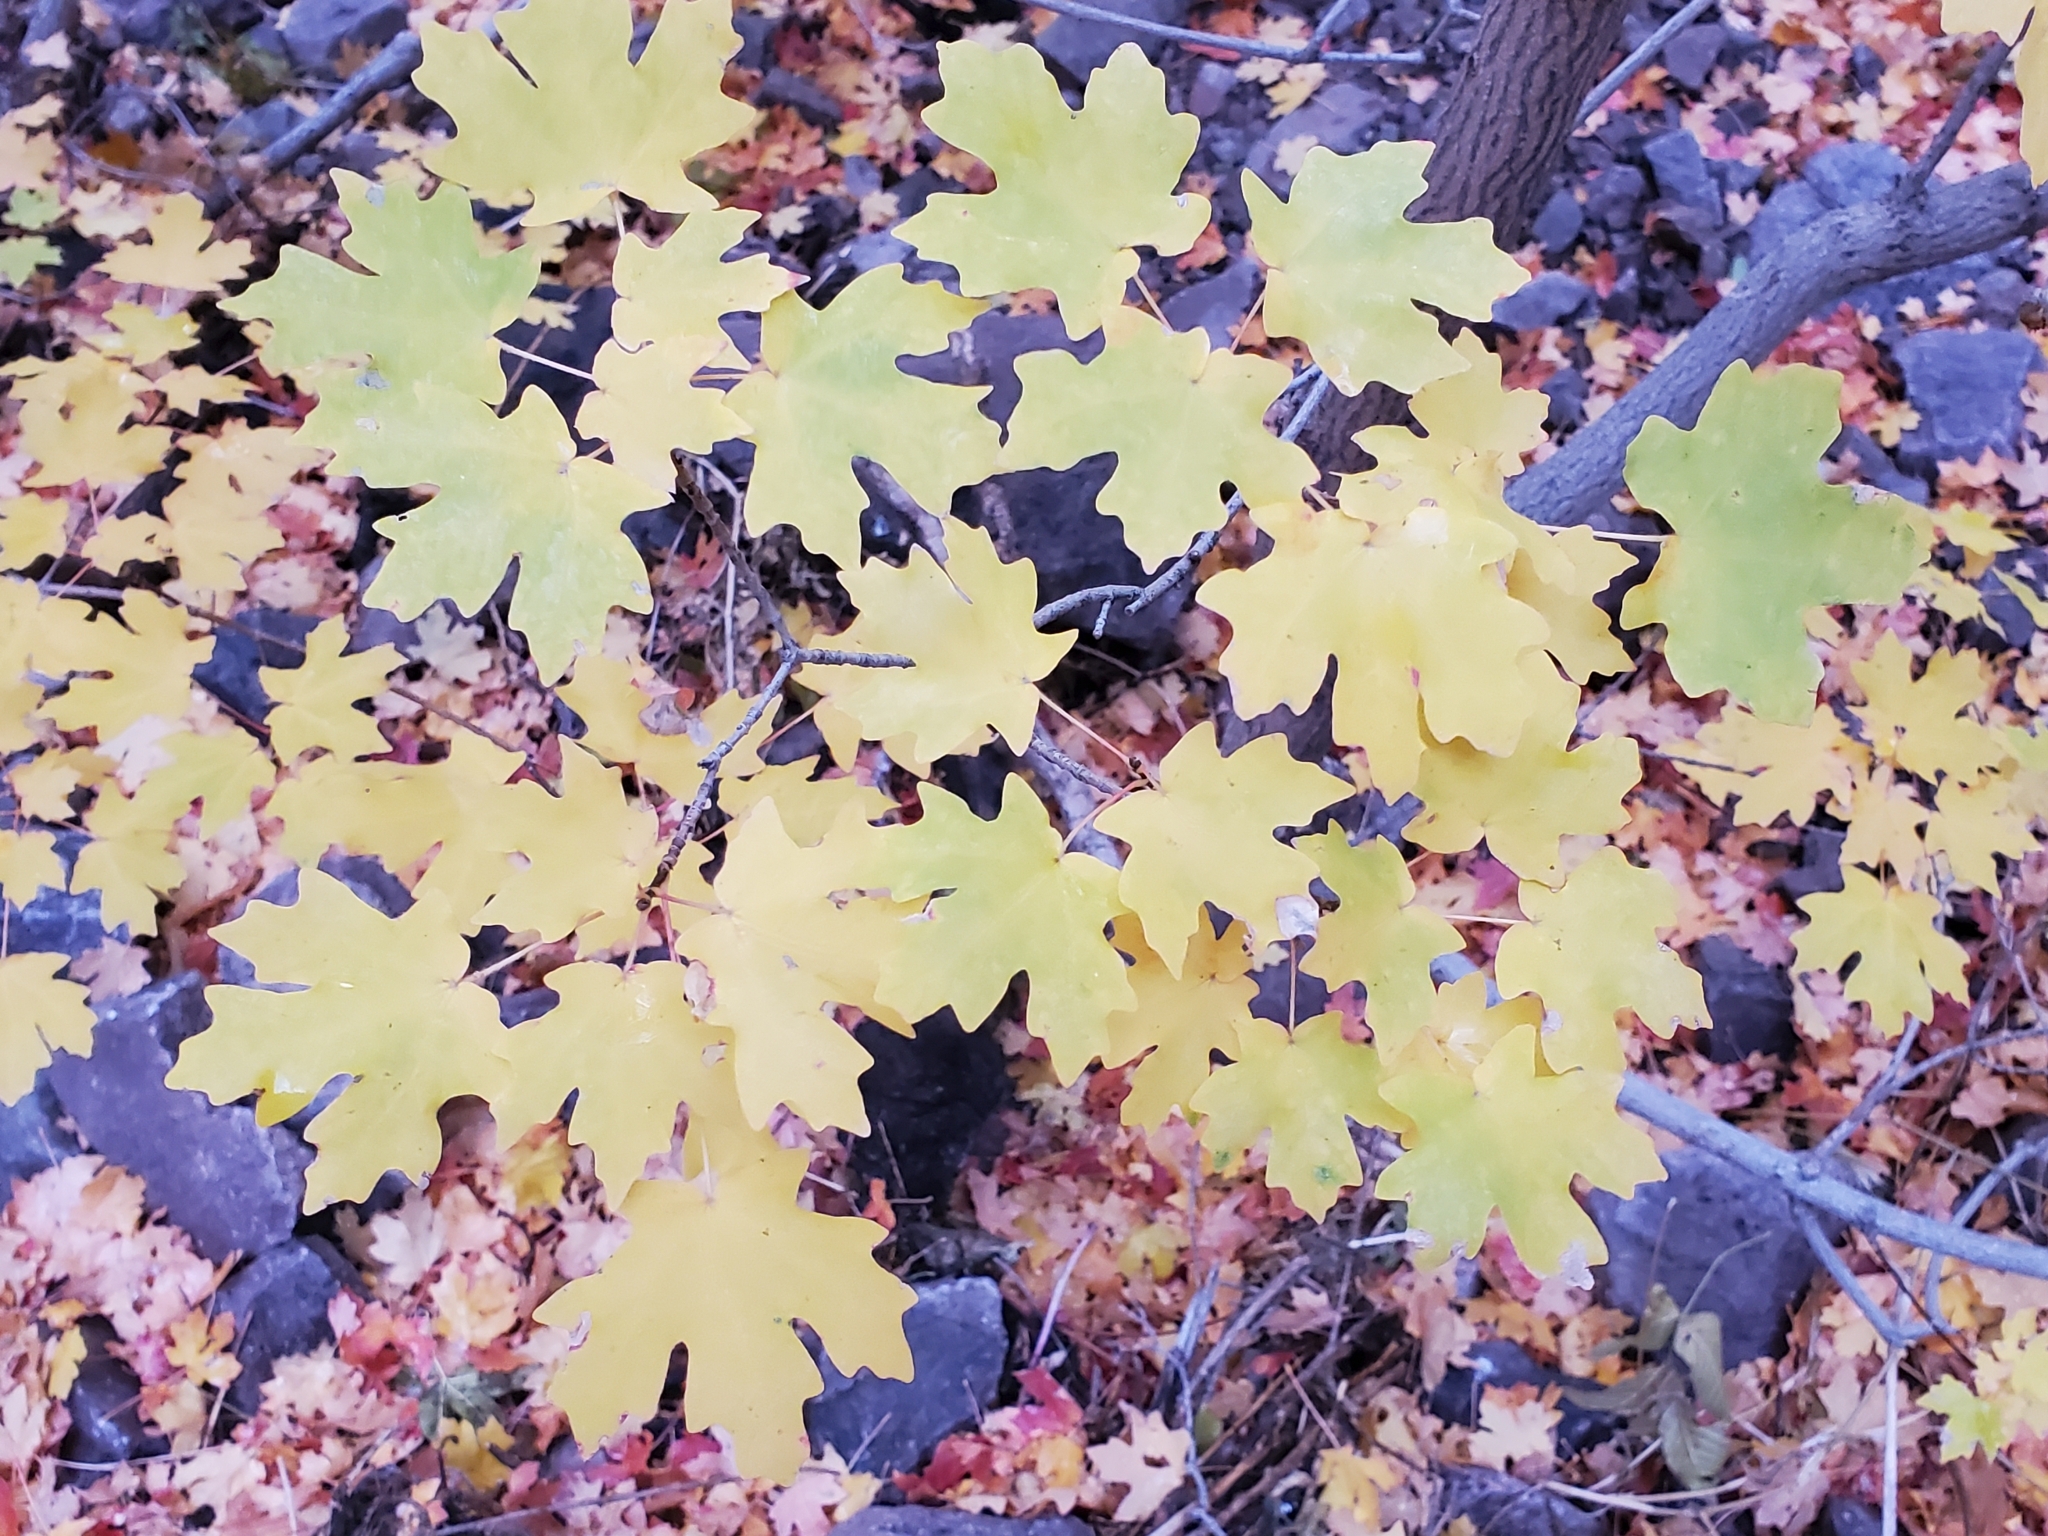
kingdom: Plantae
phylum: Tracheophyta
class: Magnoliopsida
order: Sapindales
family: Sapindaceae
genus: Acer
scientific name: Acer grandidentatum
